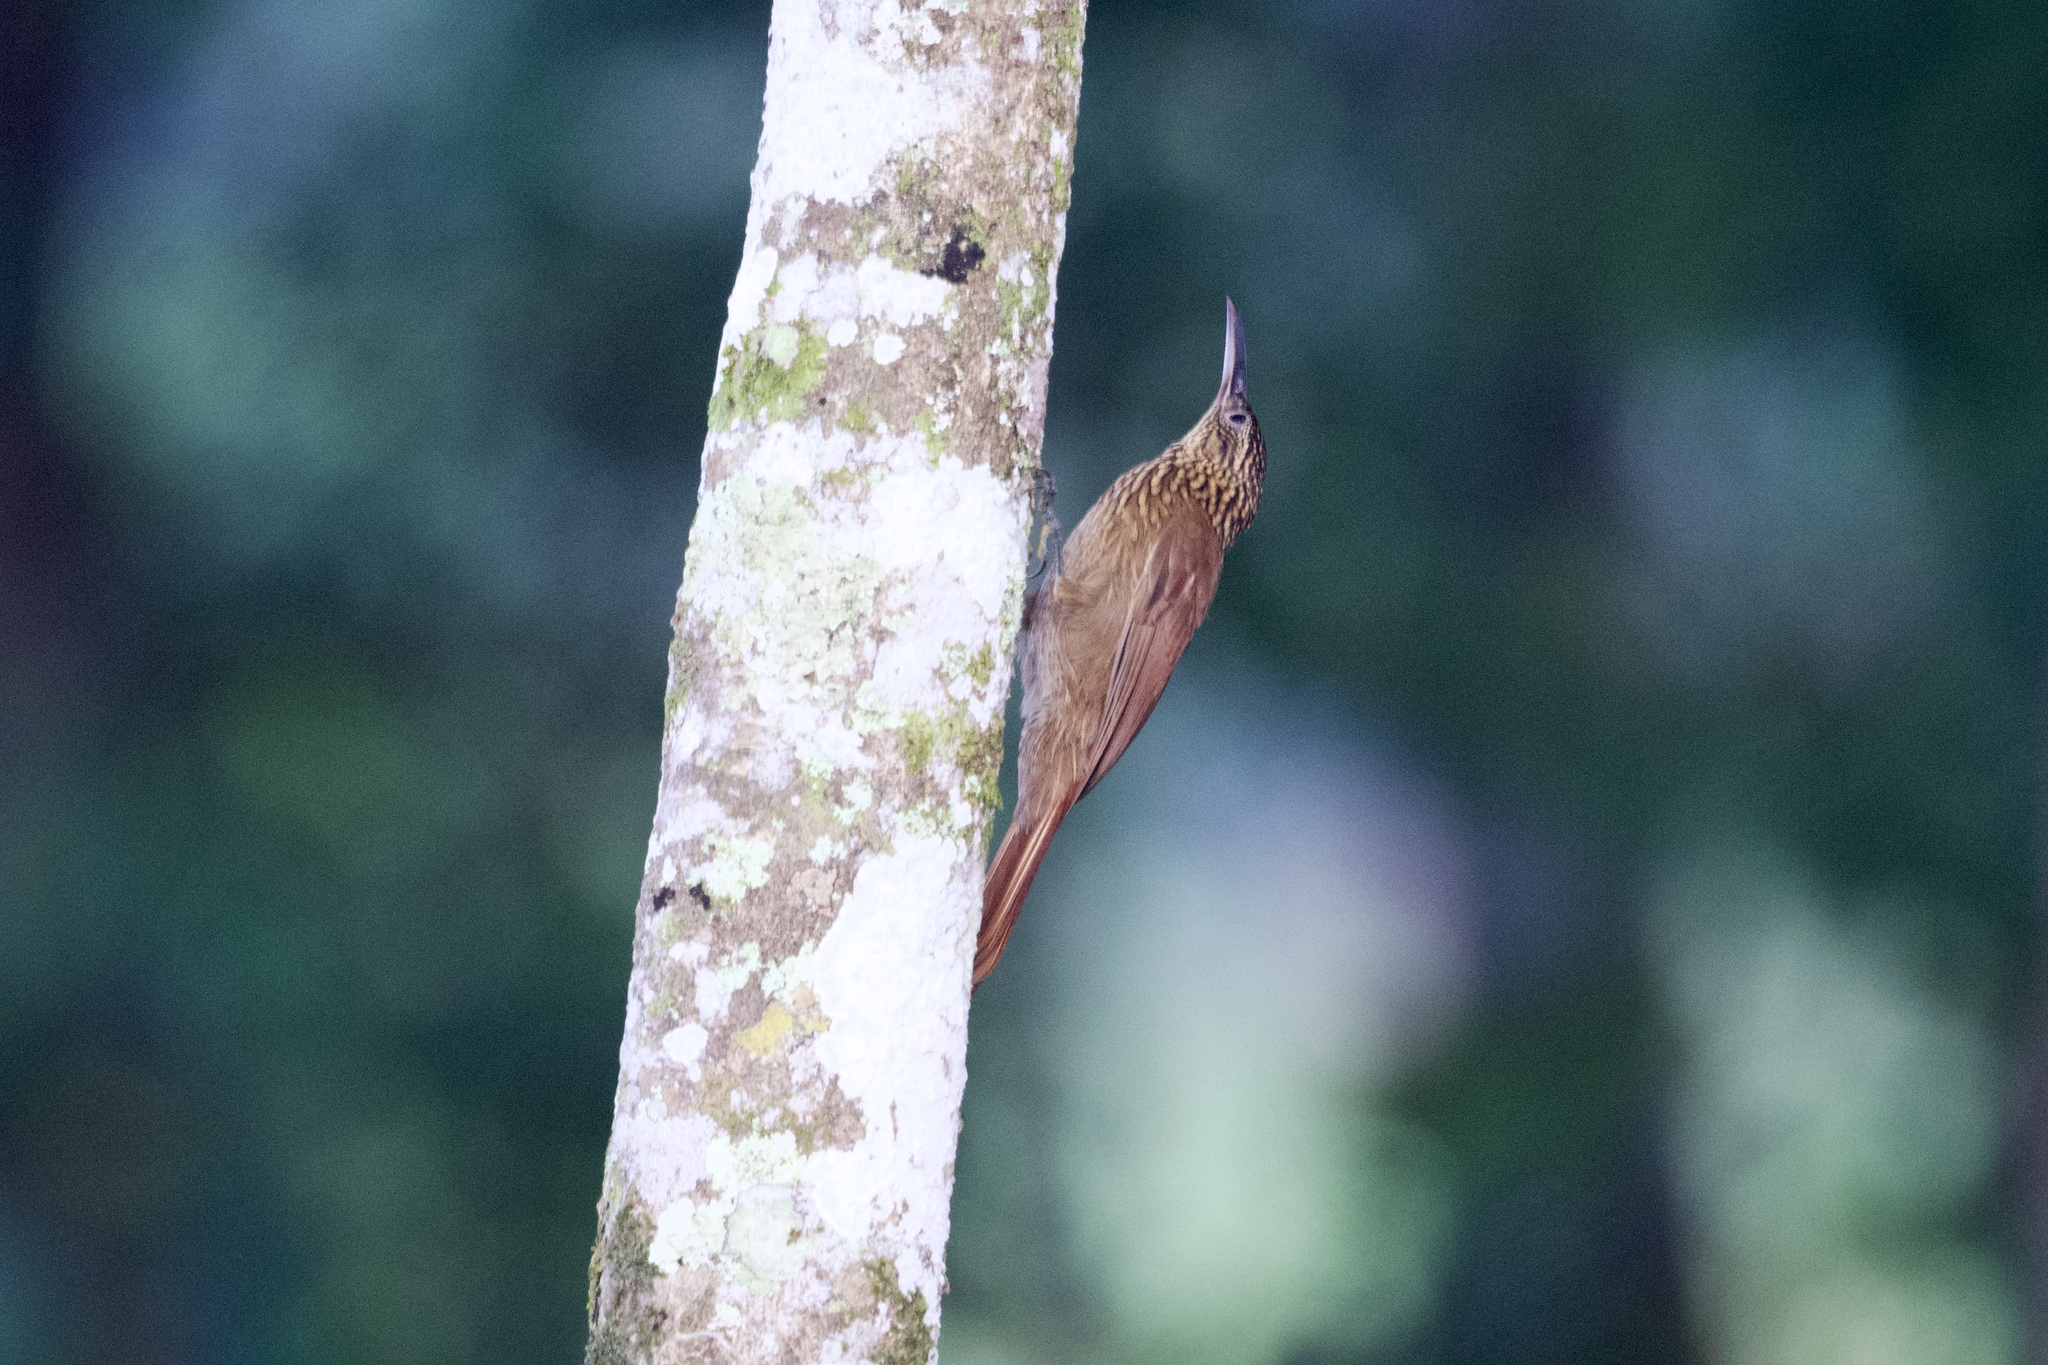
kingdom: Animalia
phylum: Chordata
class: Aves
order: Passeriformes
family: Furnariidae
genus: Xiphorhynchus
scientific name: Xiphorhynchus susurrans
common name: Cocoa woodcreeper
